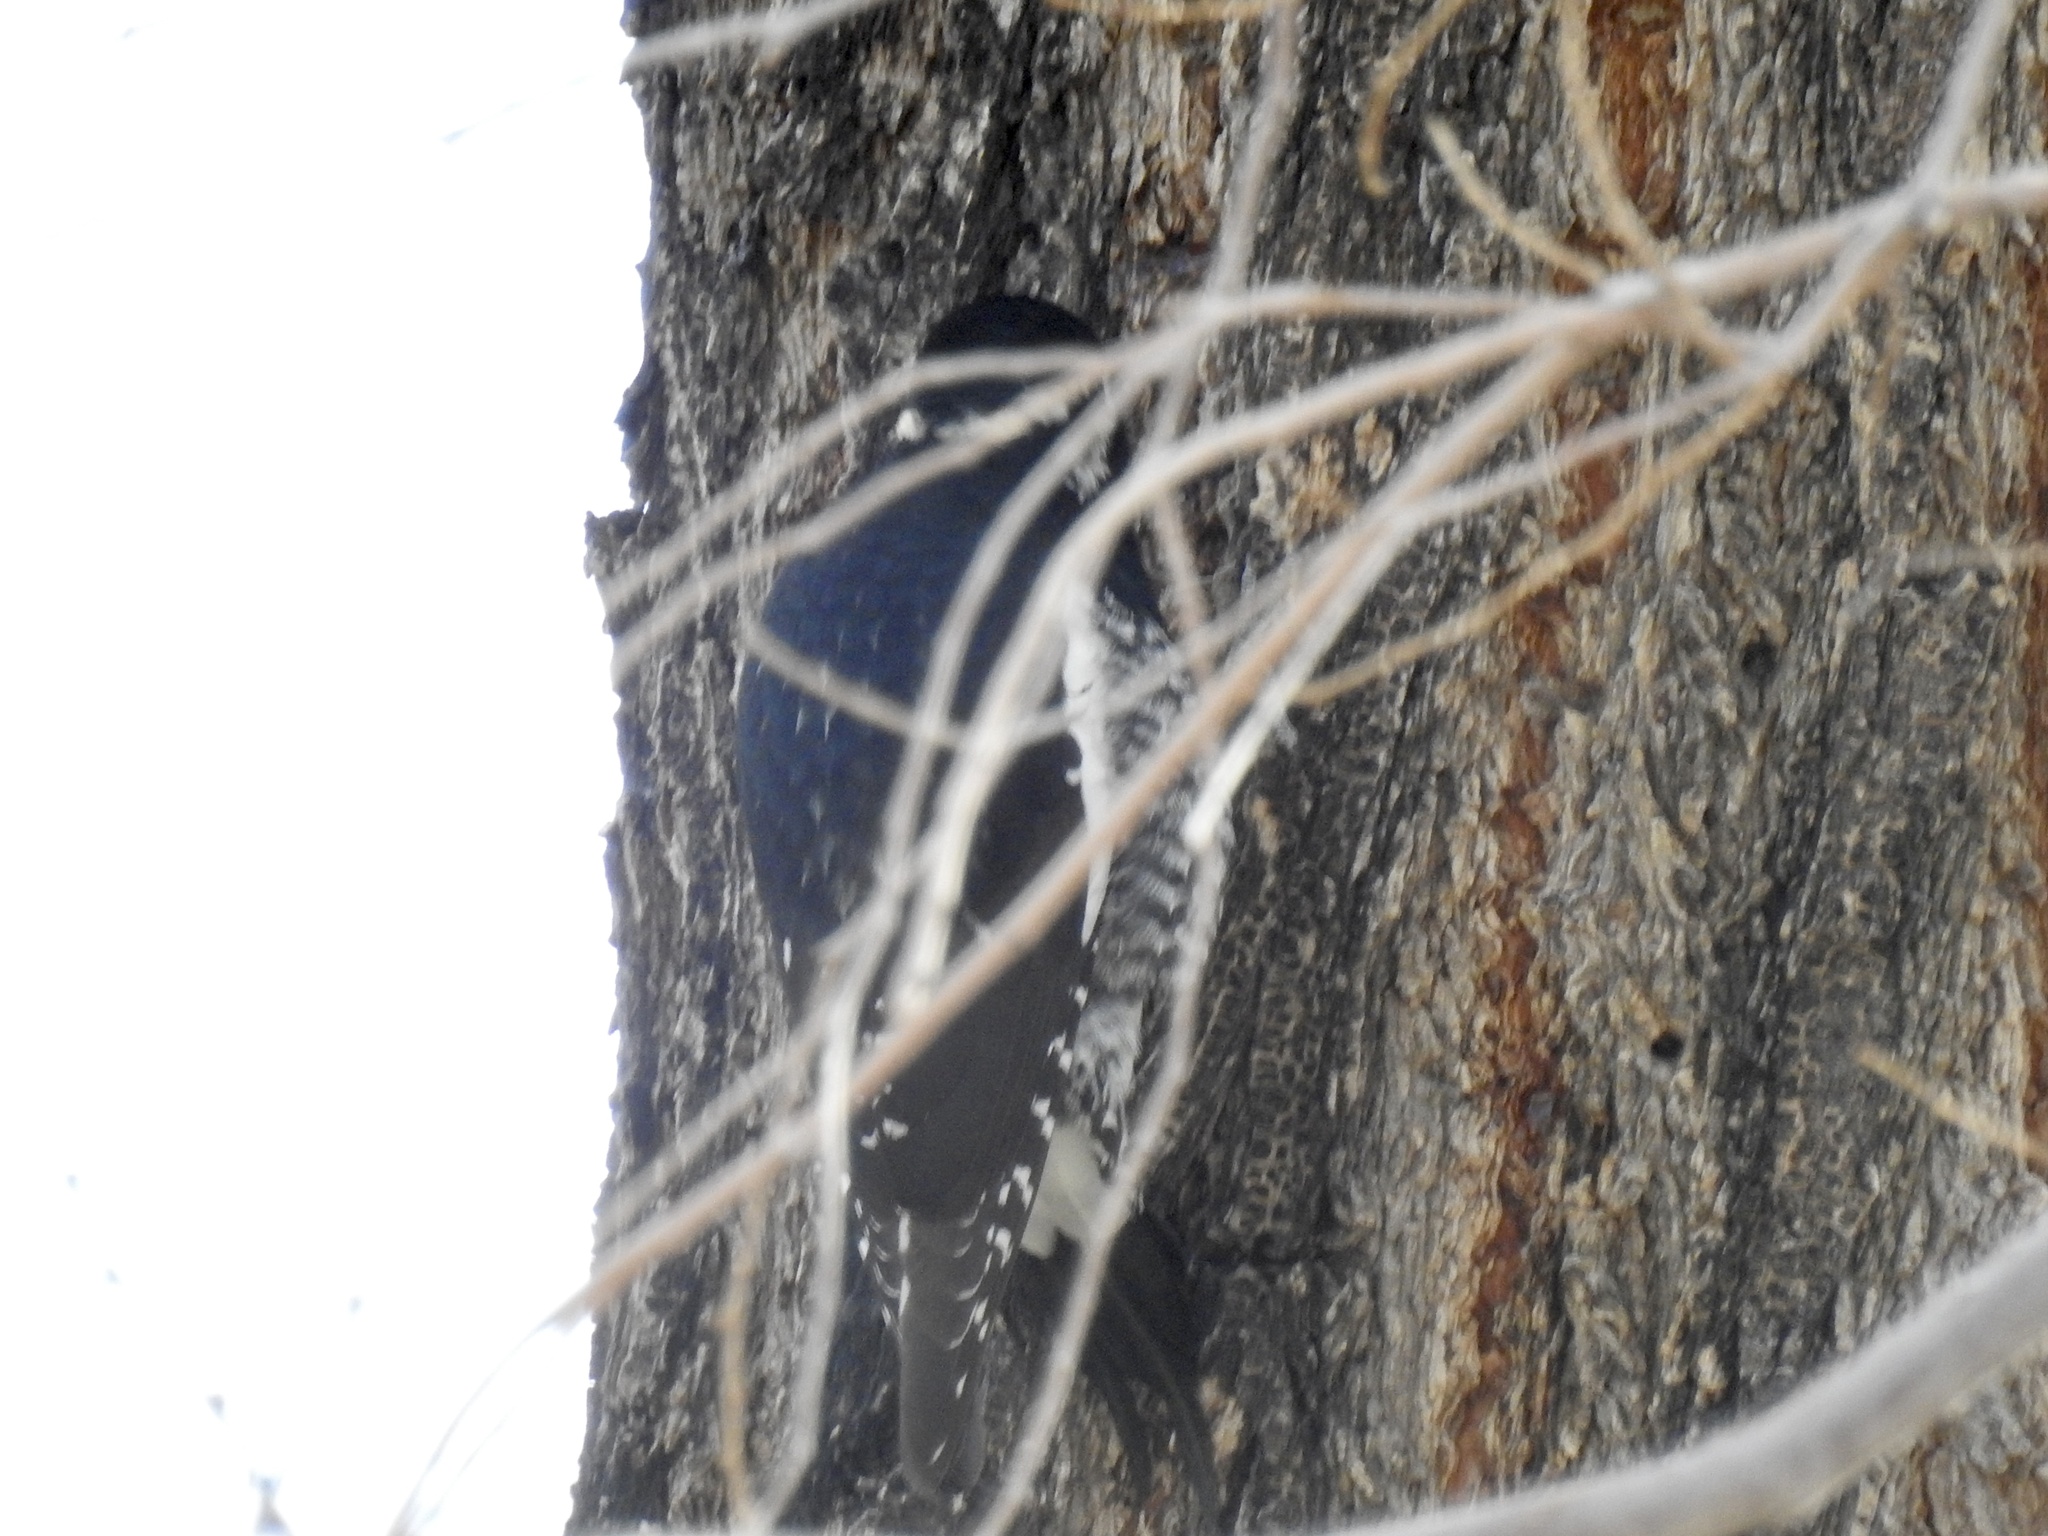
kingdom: Animalia
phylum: Chordata
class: Aves
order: Piciformes
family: Picidae
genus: Sphyrapicus
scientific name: Sphyrapicus thyroideus
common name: Williamson's sapsucker
